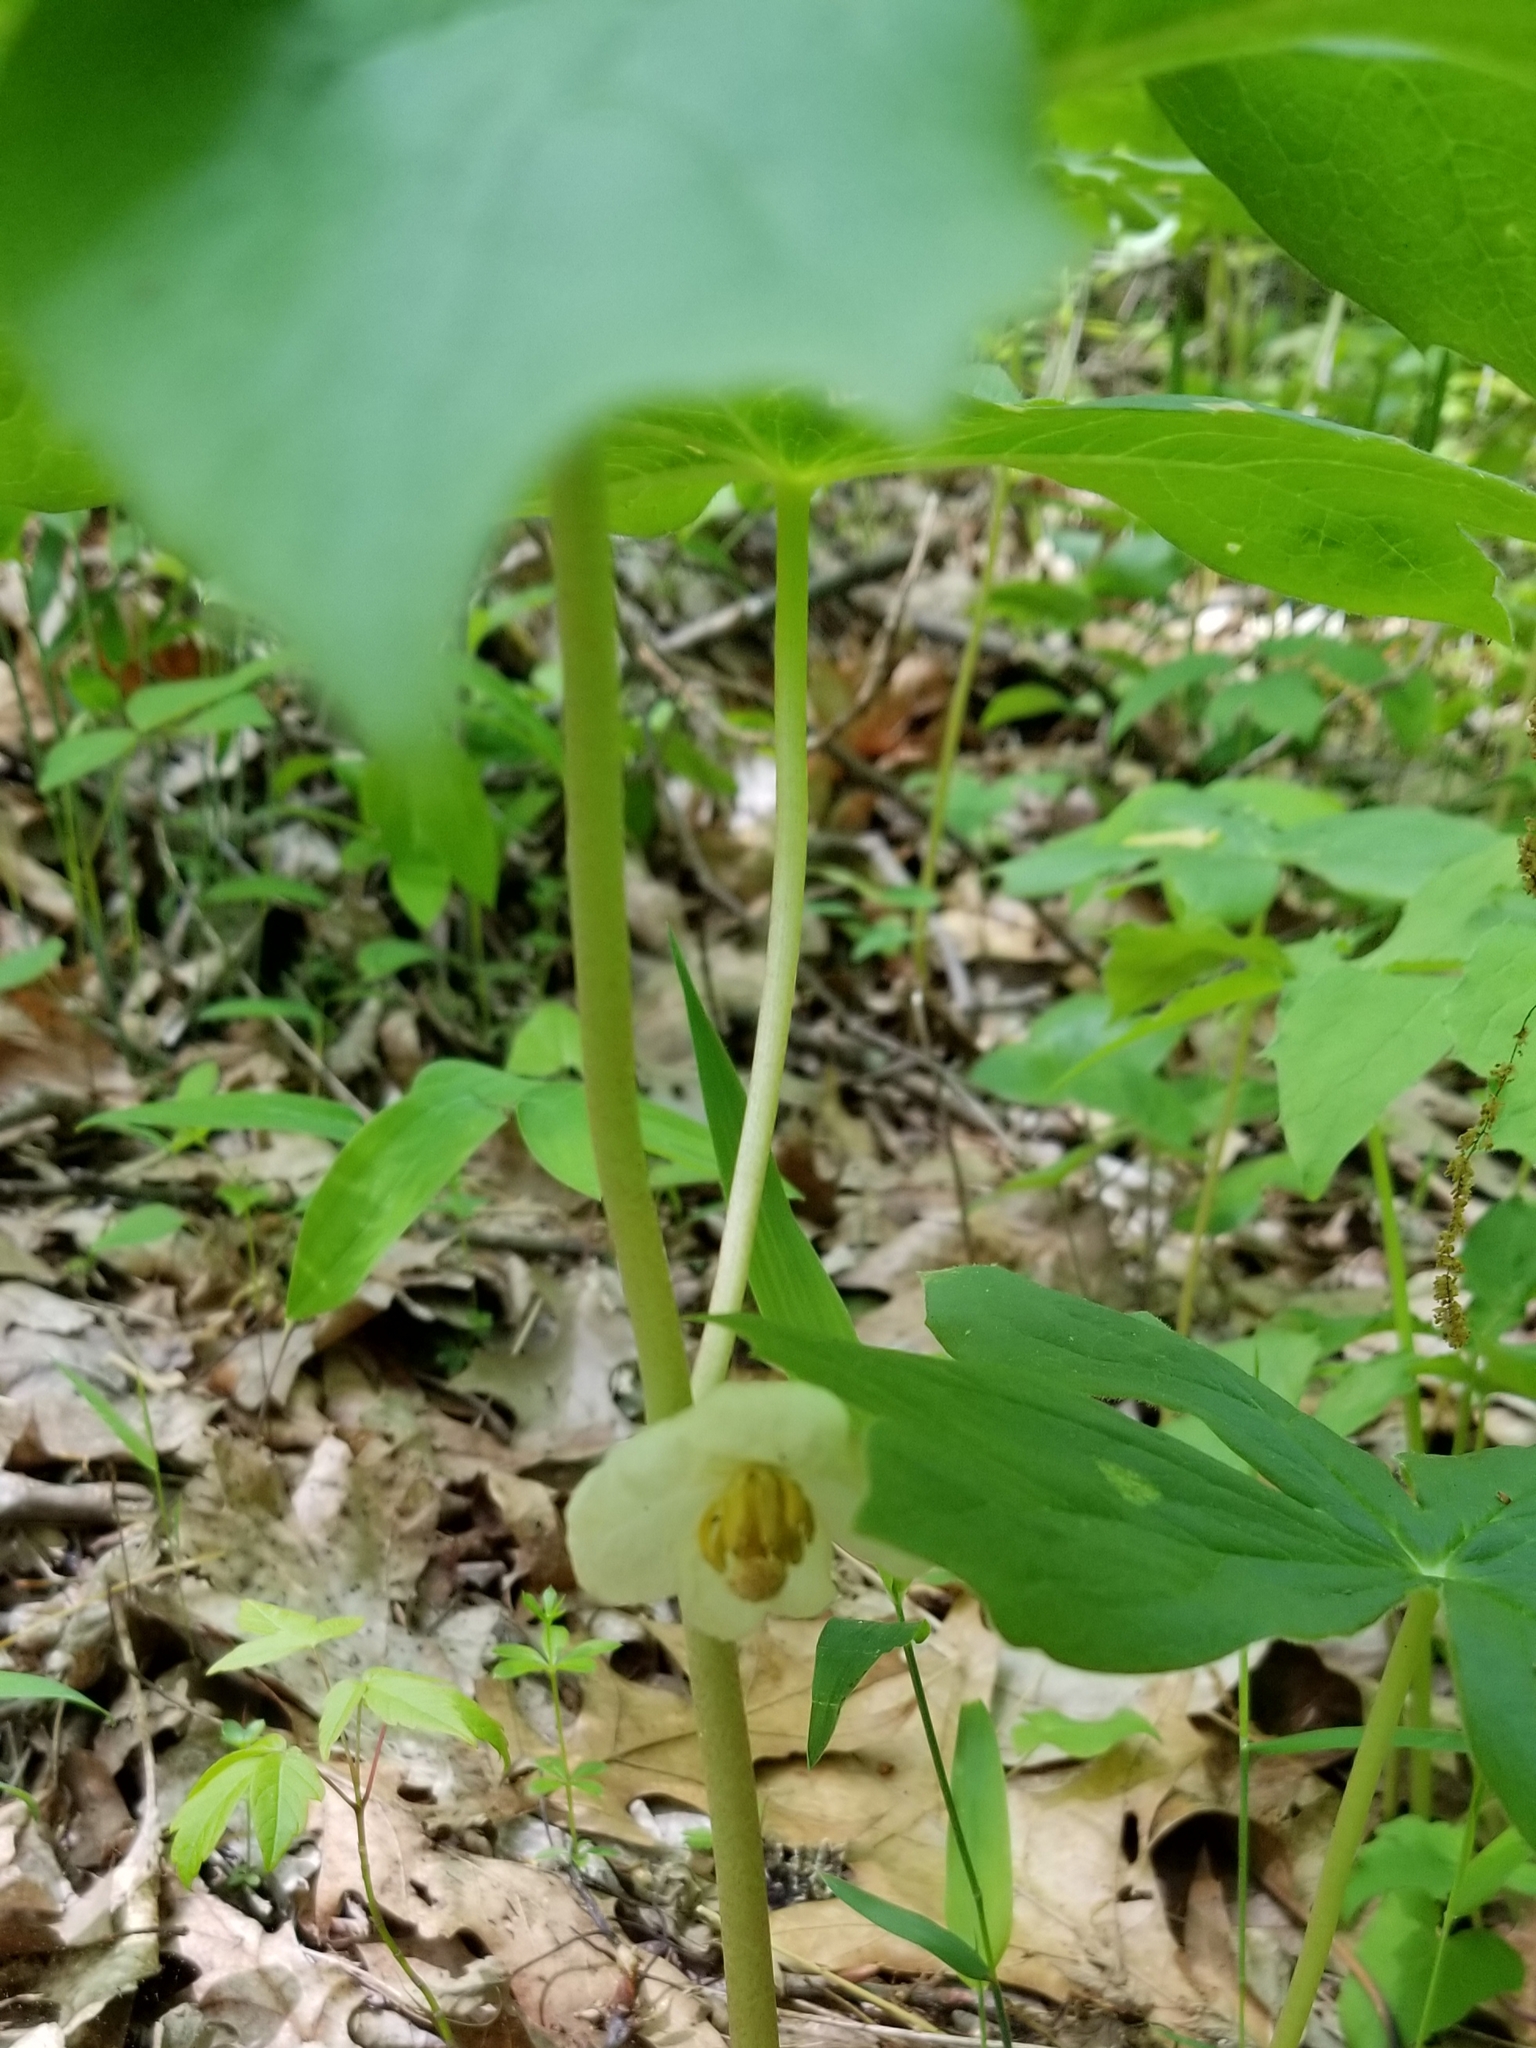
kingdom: Plantae
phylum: Tracheophyta
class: Magnoliopsida
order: Ranunculales
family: Berberidaceae
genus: Podophyllum
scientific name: Podophyllum peltatum
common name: Wild mandrake
